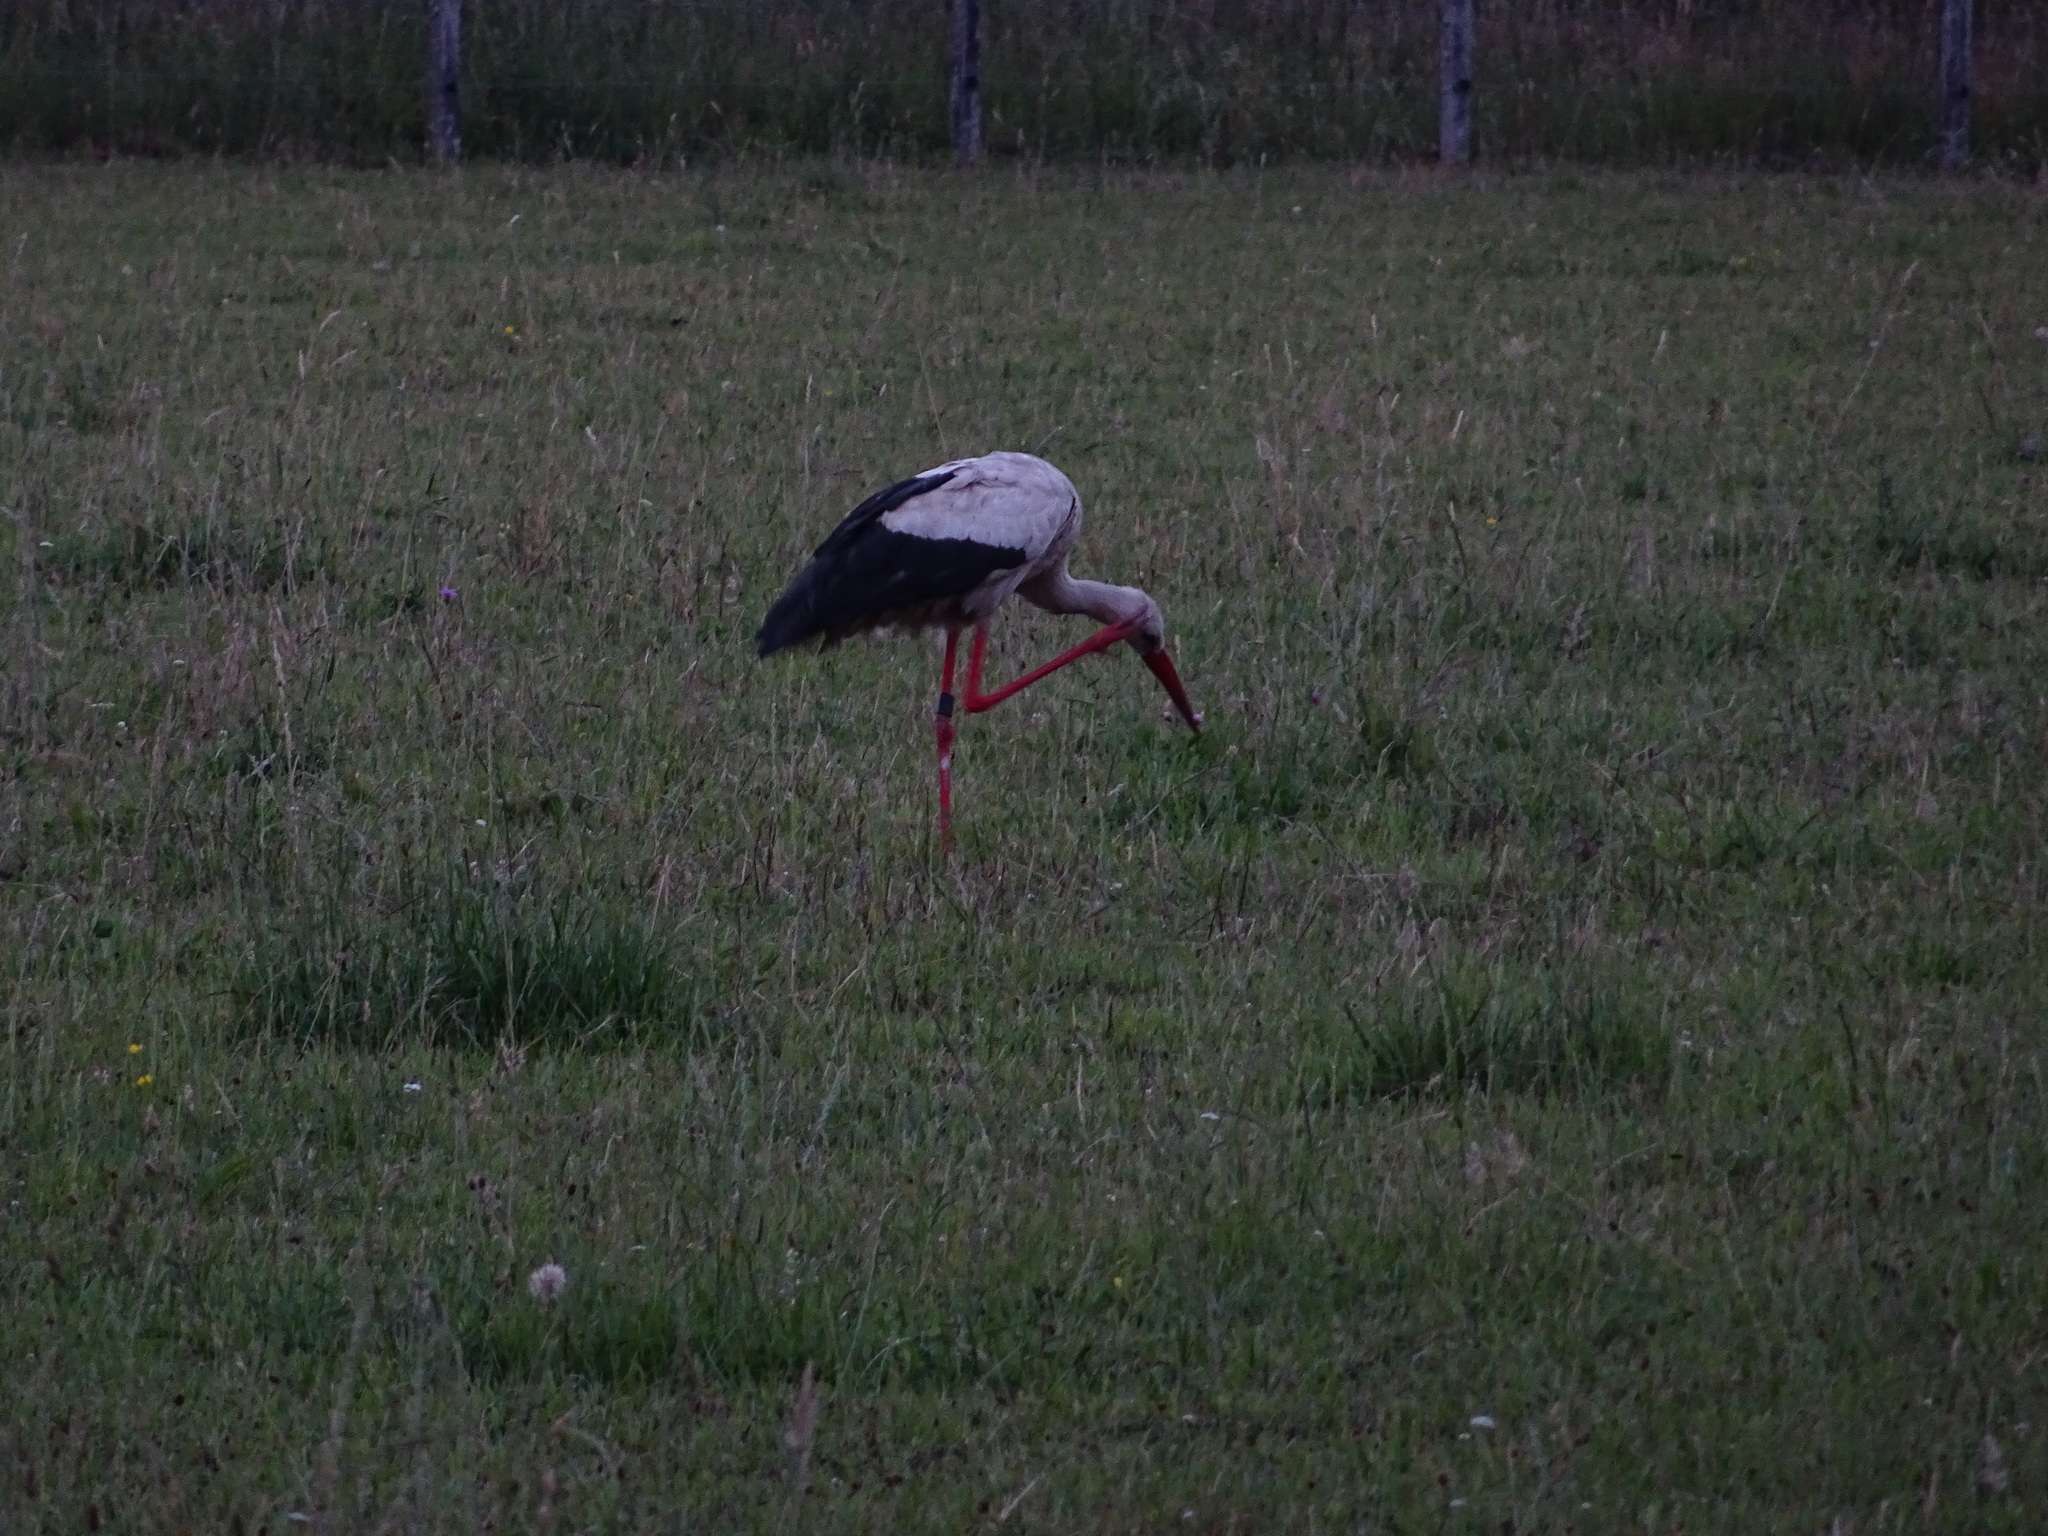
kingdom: Animalia
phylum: Chordata
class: Aves
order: Ciconiiformes
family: Ciconiidae
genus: Ciconia
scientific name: Ciconia ciconia
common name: White stork
